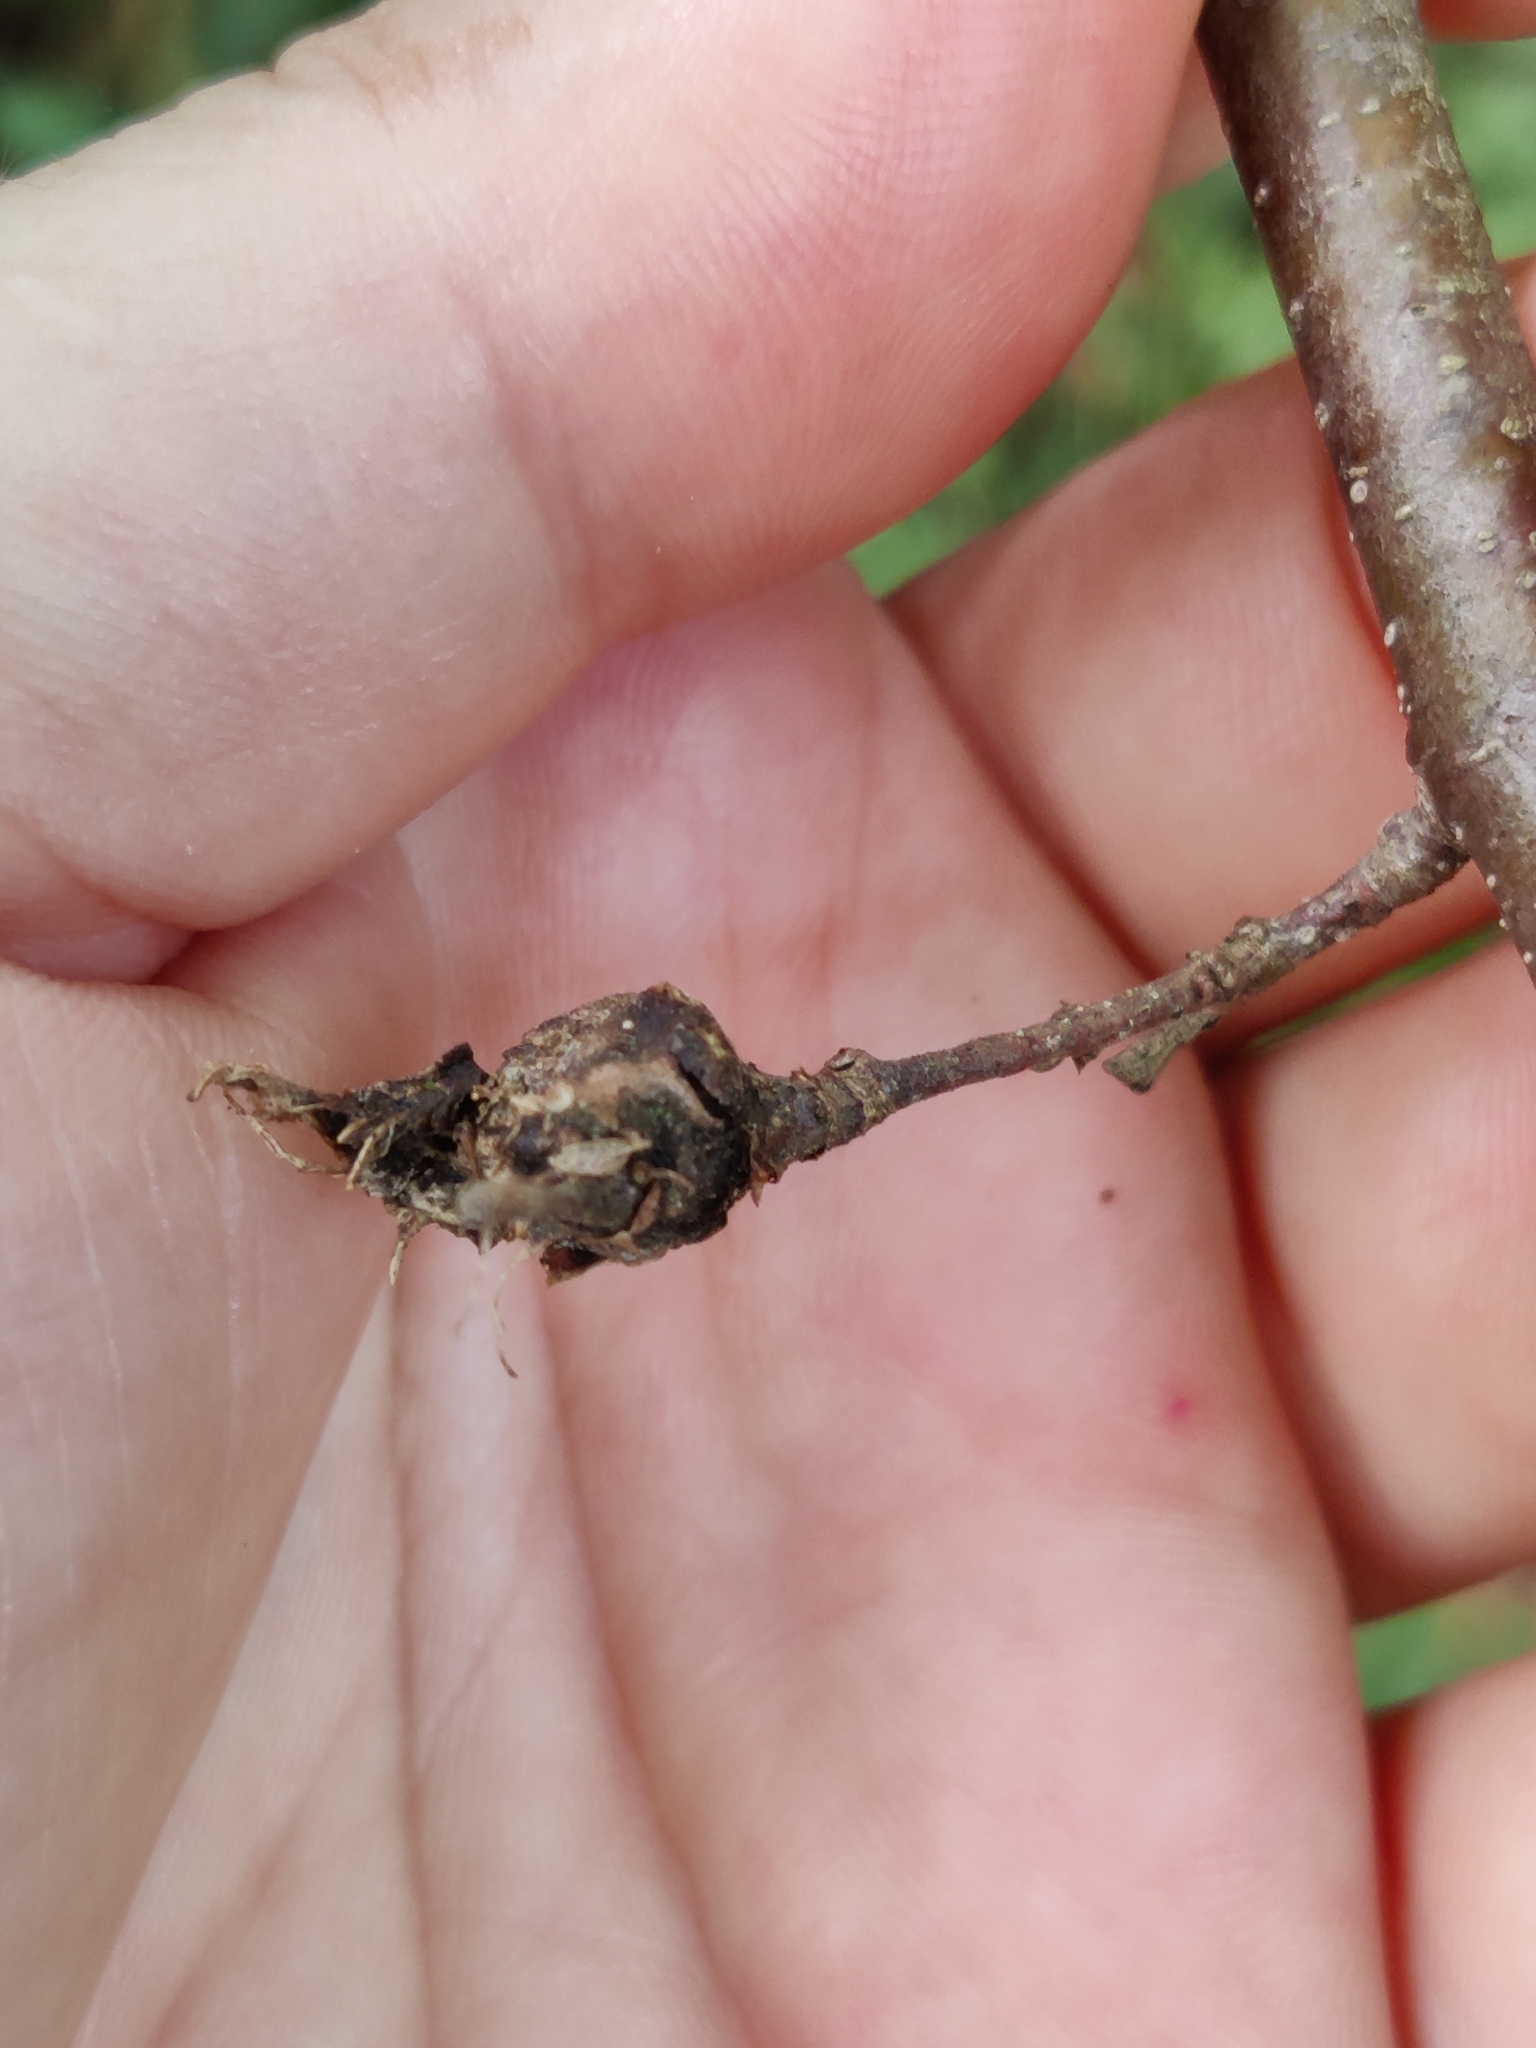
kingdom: Animalia
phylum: Arthropoda
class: Insecta
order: Hymenoptera
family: Cynipidae
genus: Dryocosmus
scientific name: Dryocosmus kuriphilus
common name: Asian chestnut gall wasp
